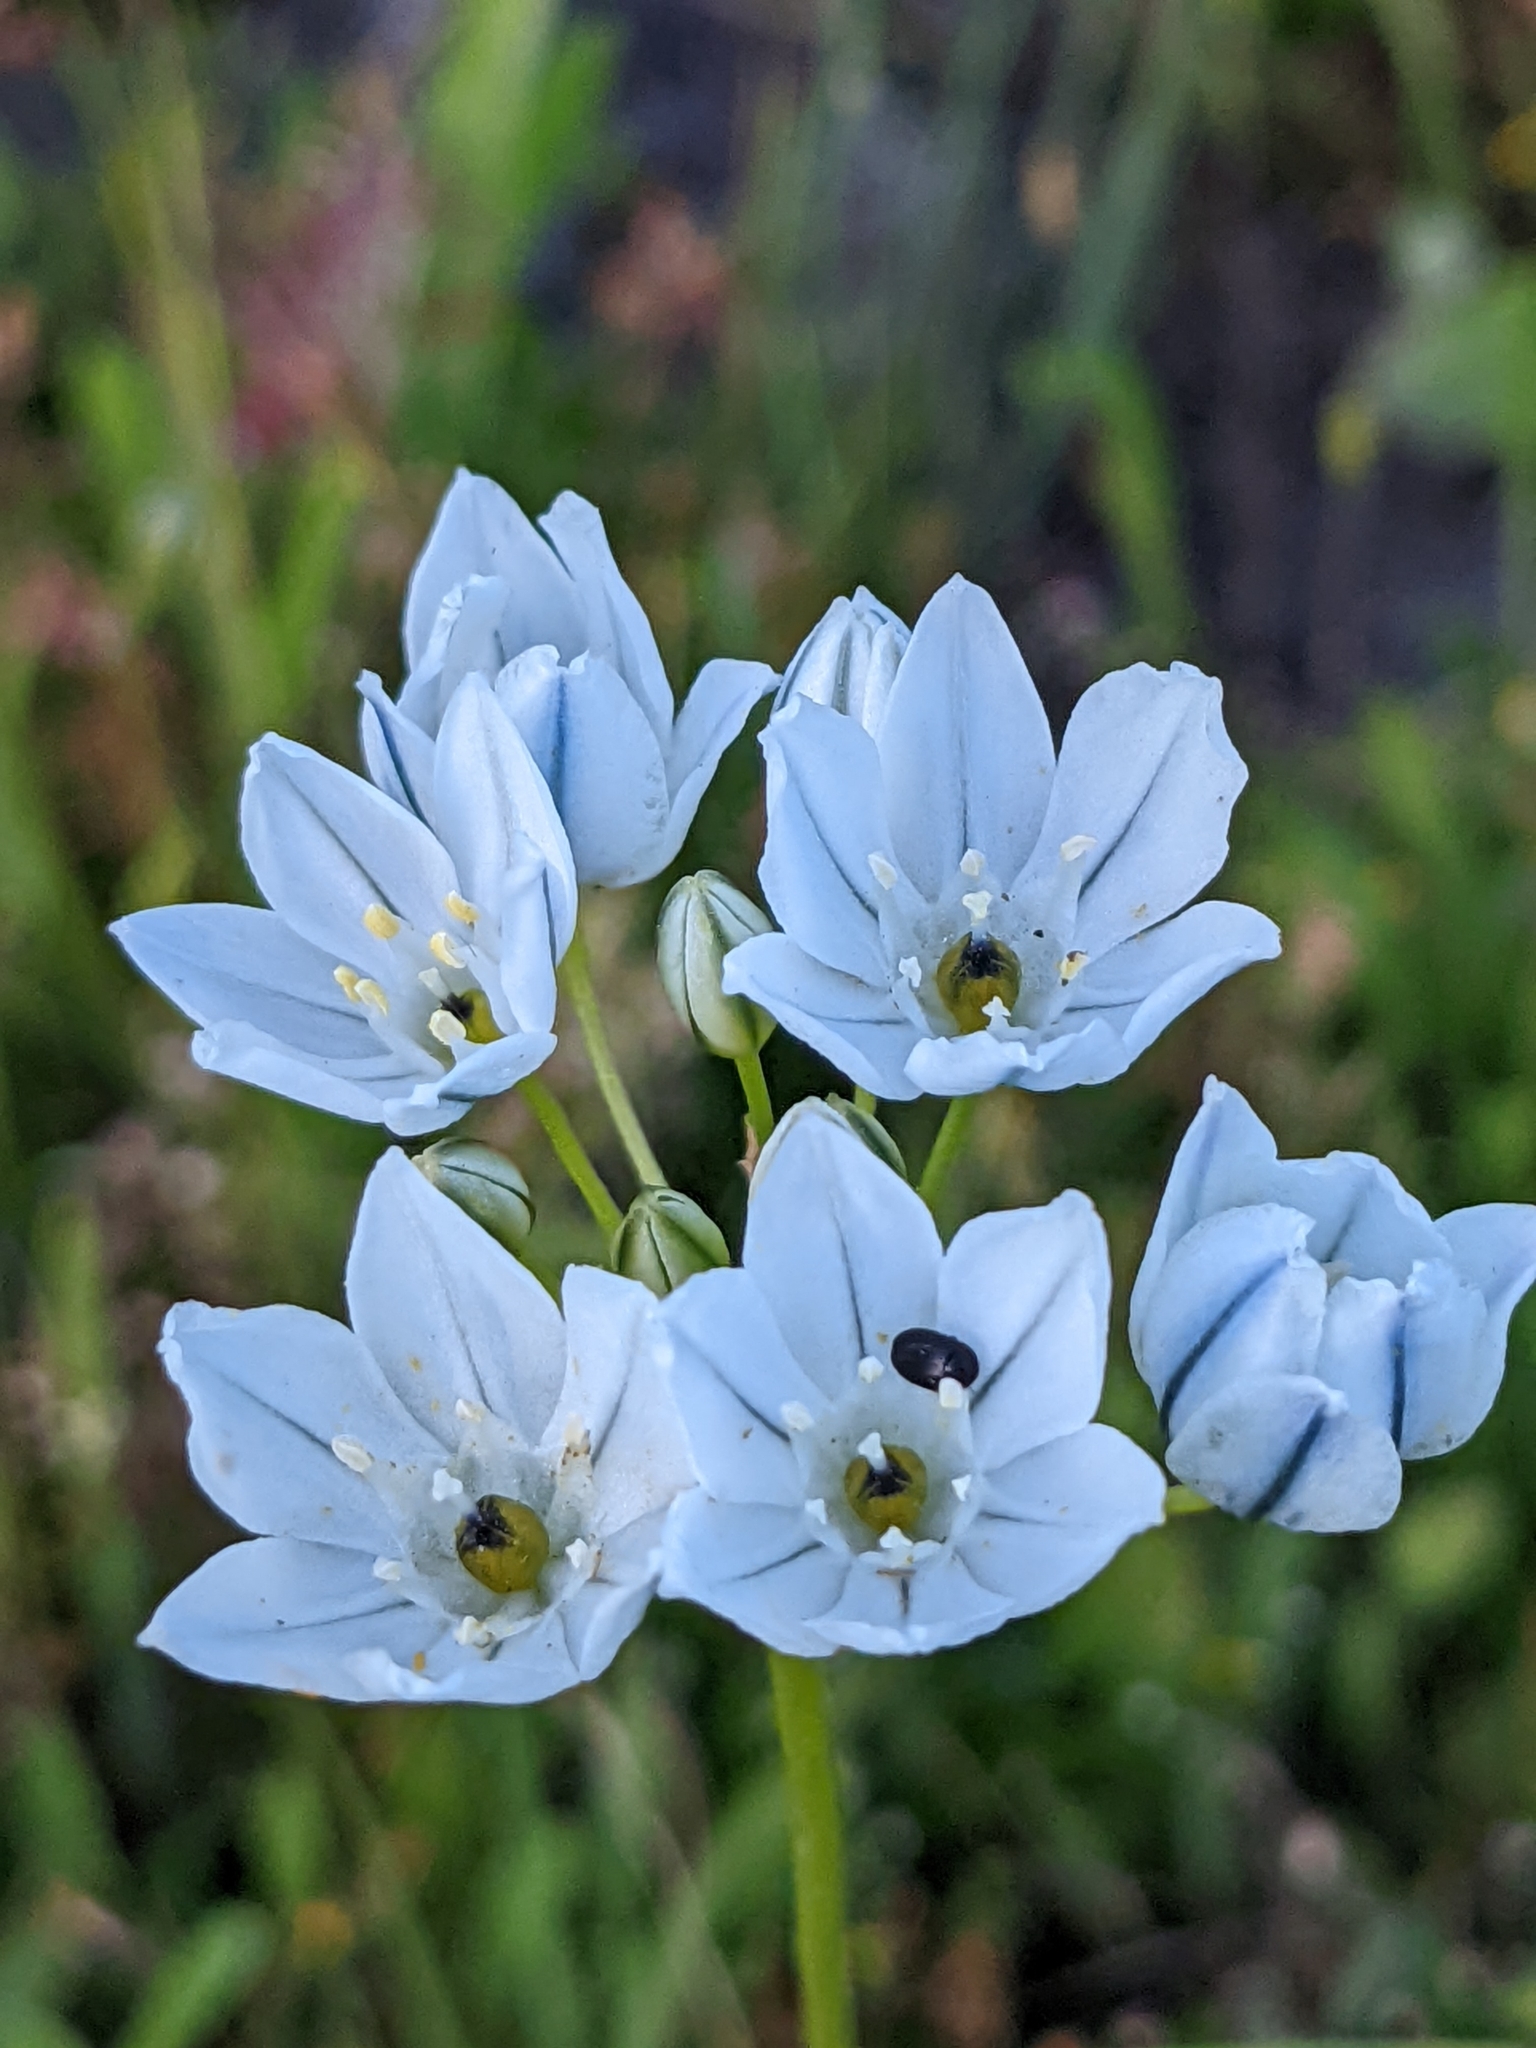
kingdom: Plantae
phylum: Tracheophyta
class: Liliopsida
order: Asparagales
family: Asparagaceae
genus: Triteleia
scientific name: Triteleia hyacinthina
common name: White brodiaea
